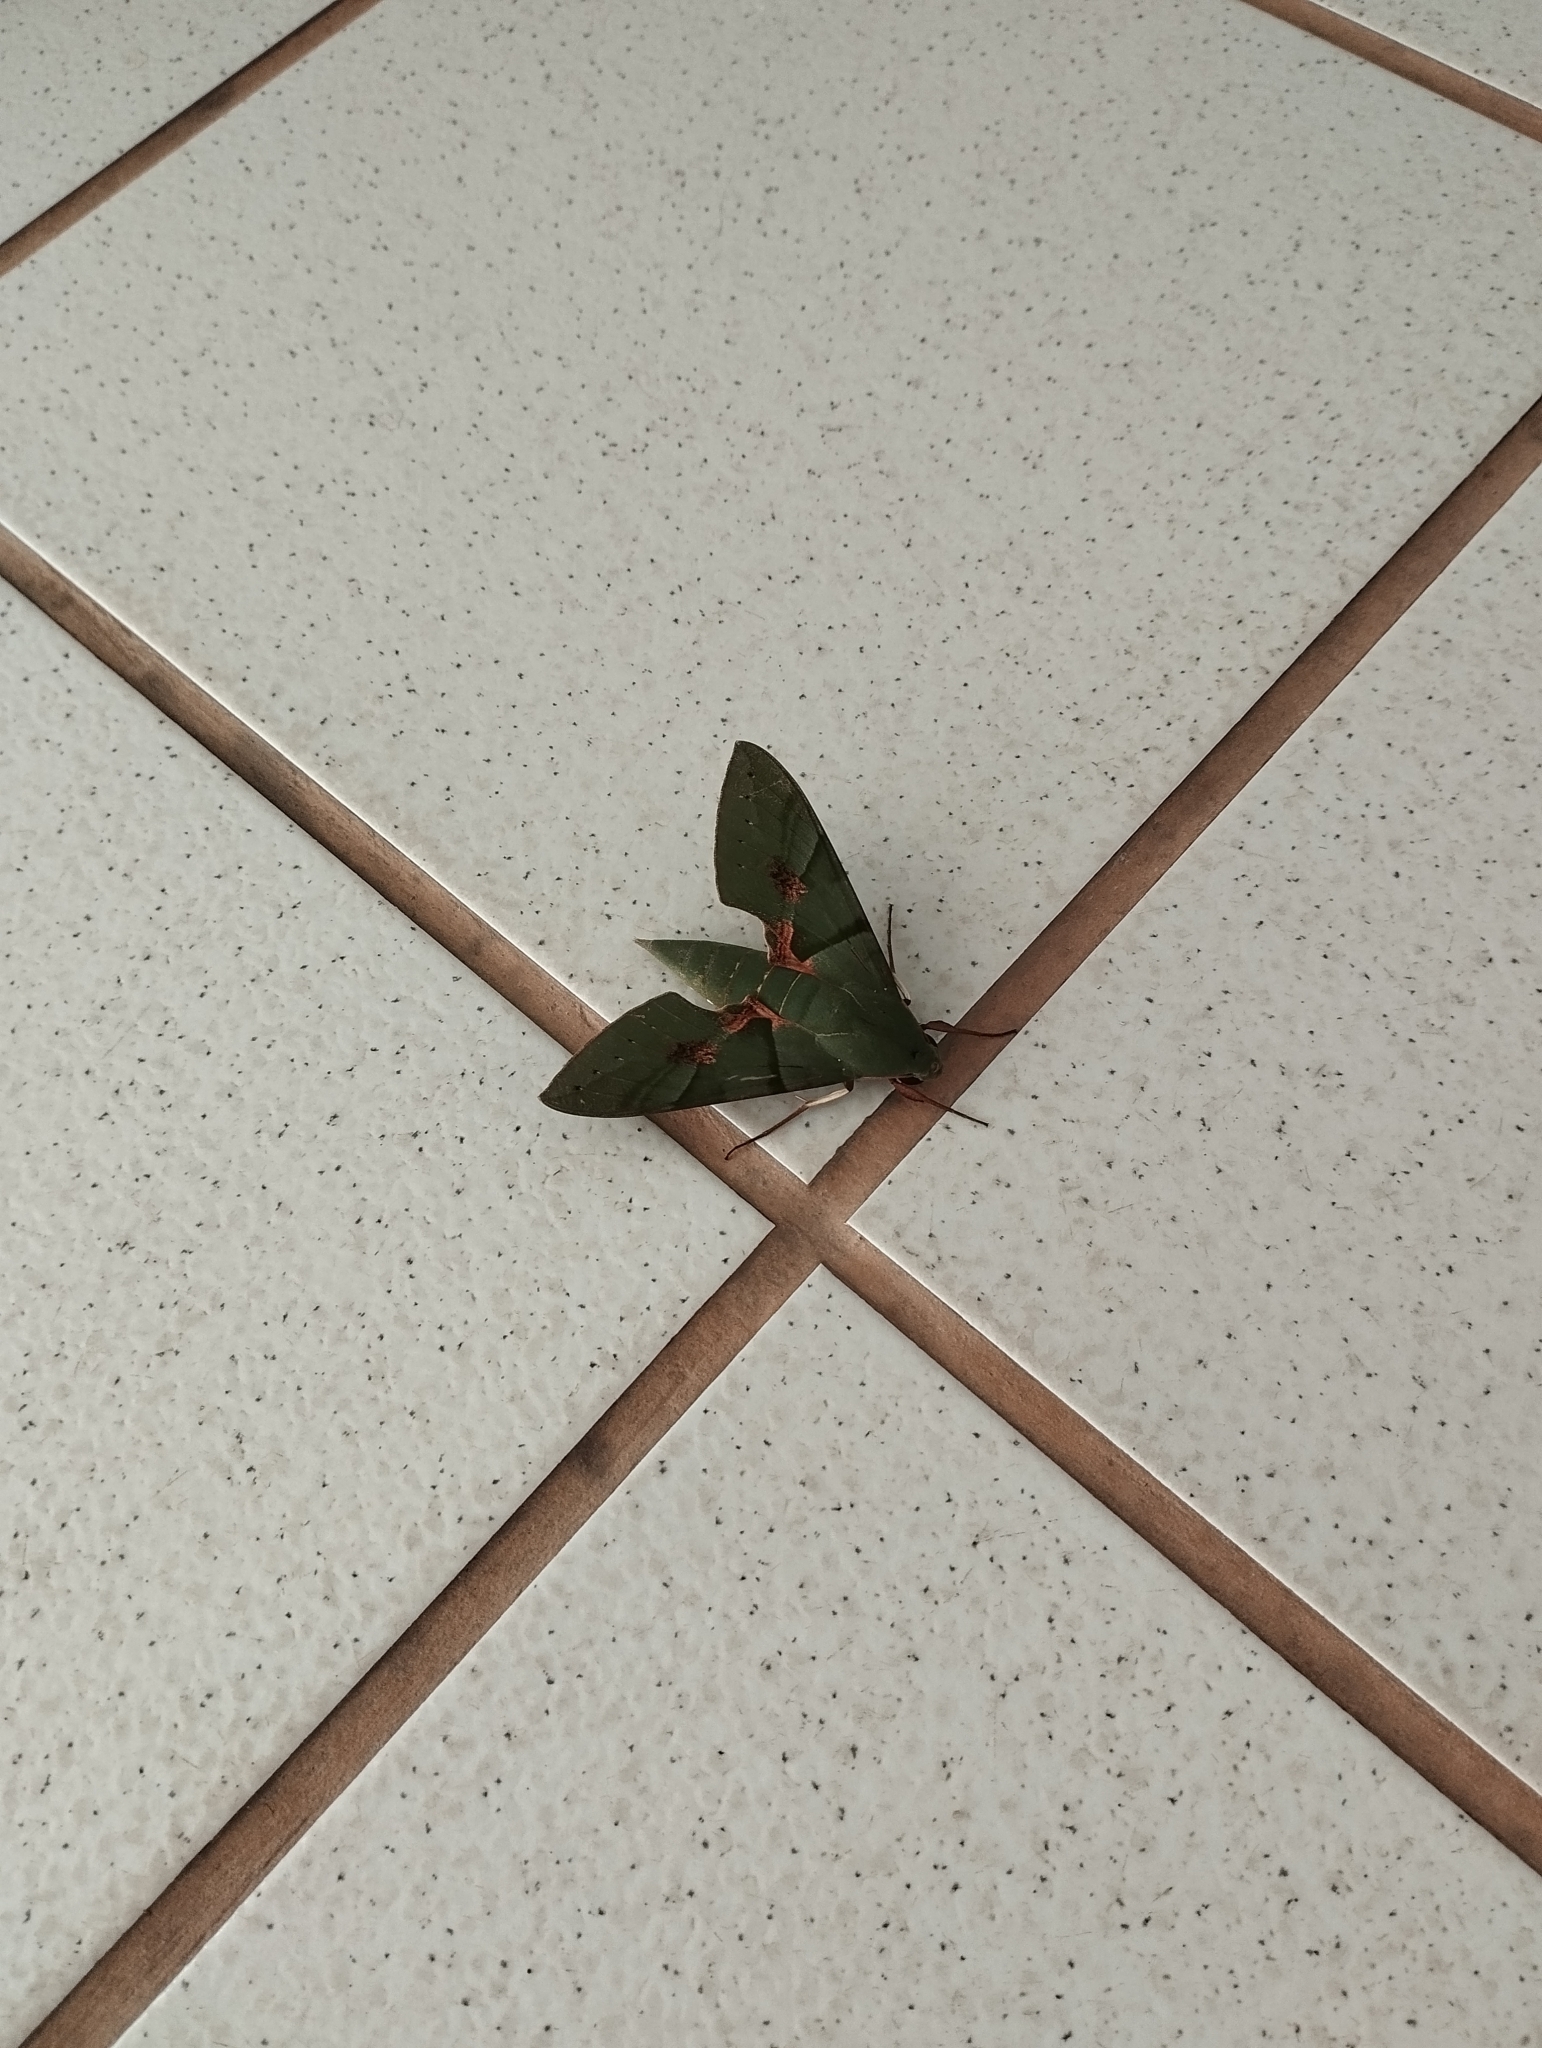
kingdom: Animalia
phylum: Arthropoda
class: Insecta
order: Lepidoptera
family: Sphingidae
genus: Eumorpha
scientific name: Eumorpha labruscae
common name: Gaudy sphinx
